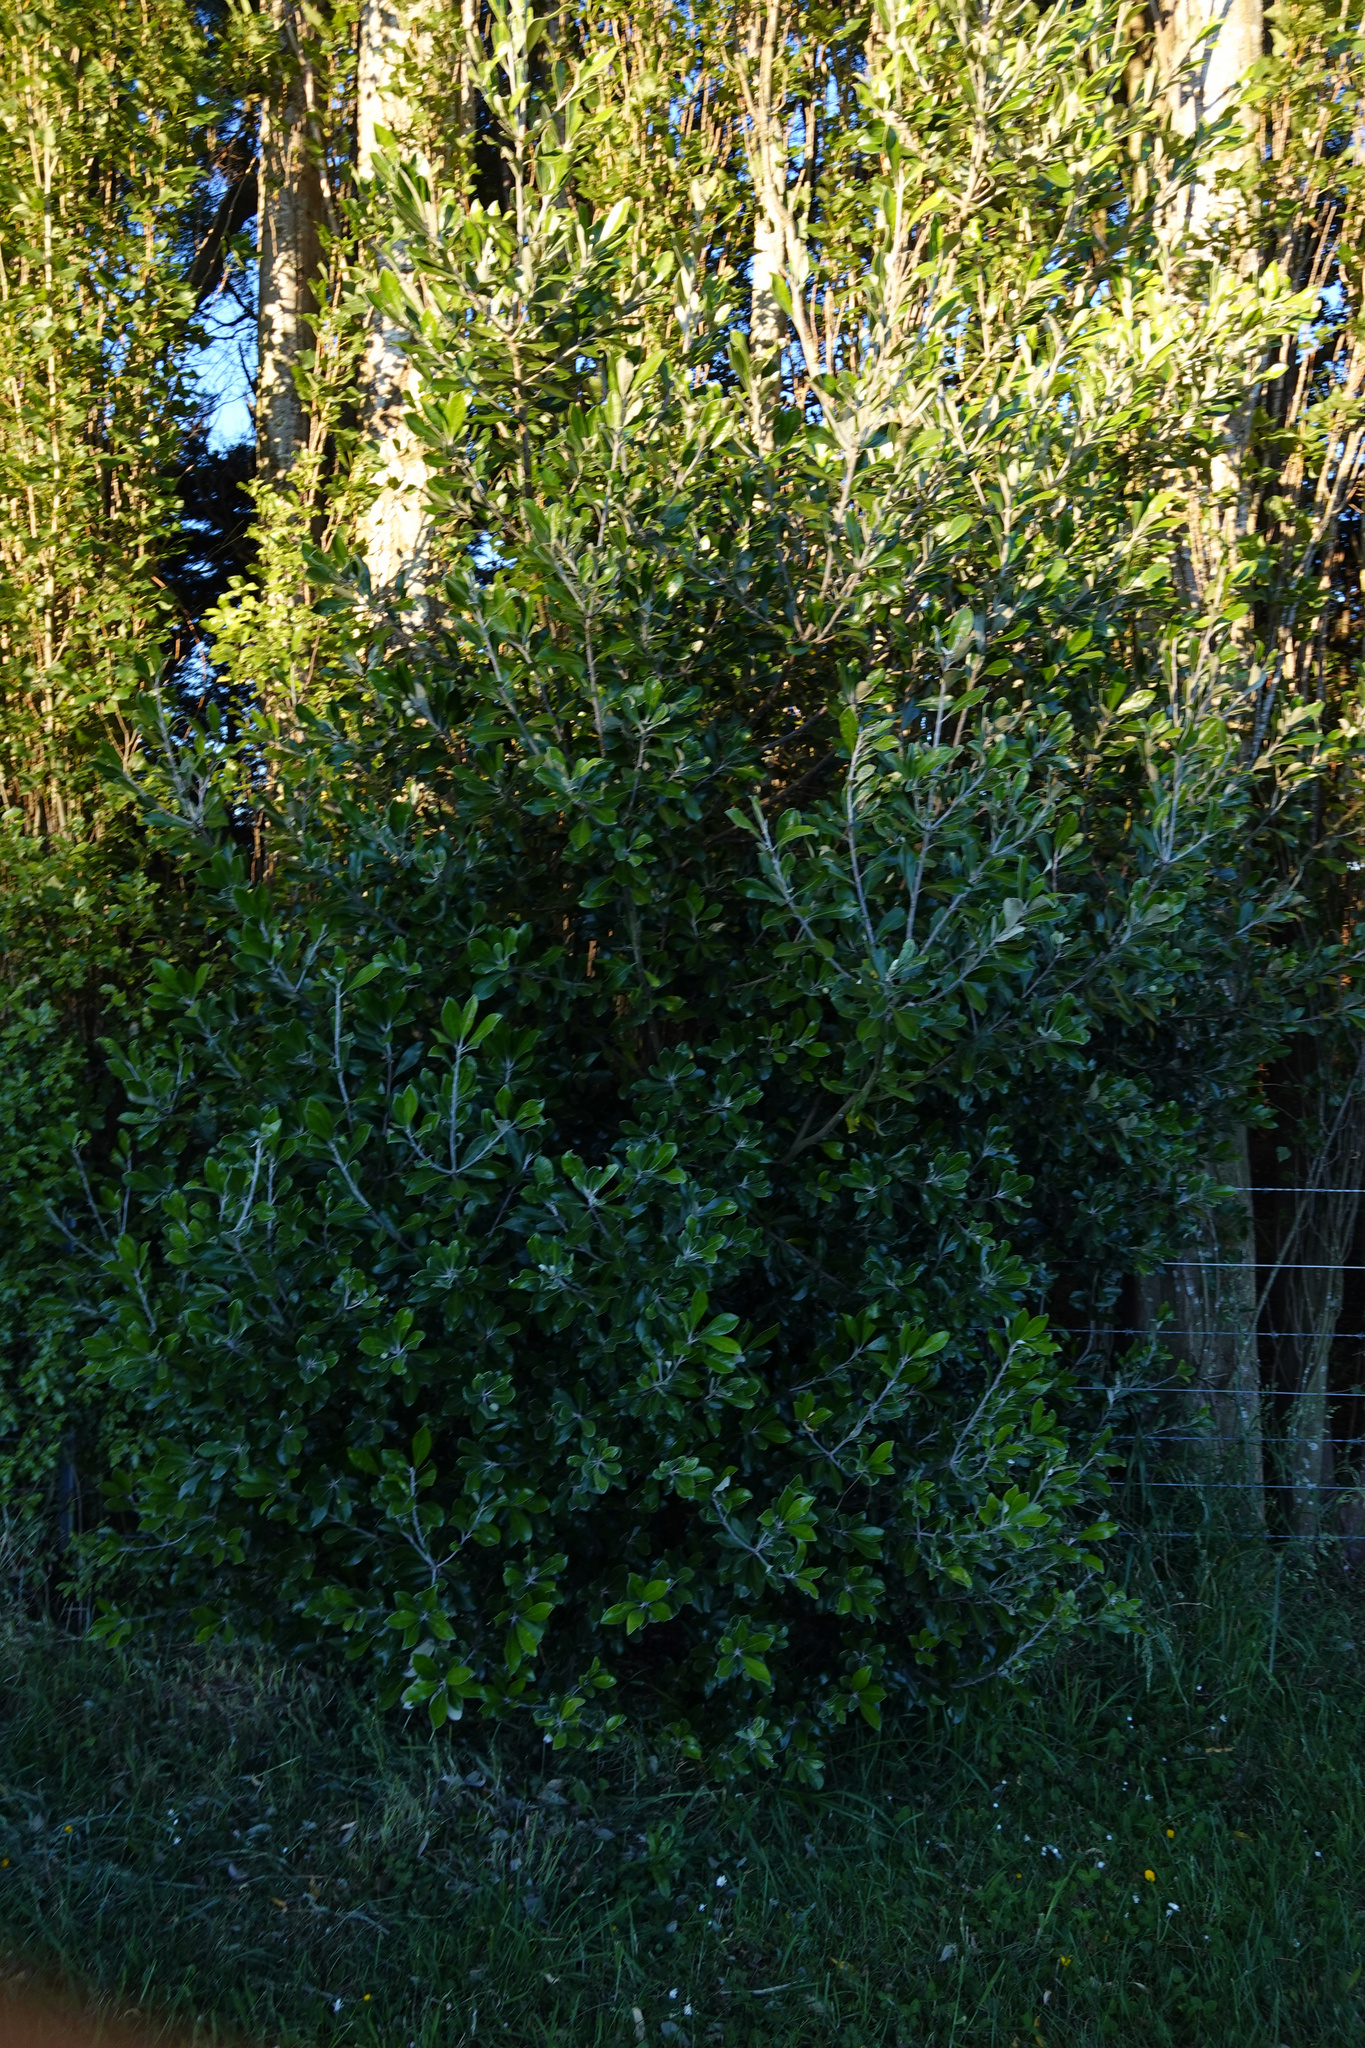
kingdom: Plantae
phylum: Tracheophyta
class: Magnoliopsida
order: Apiales
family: Pittosporaceae
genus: Pittosporum
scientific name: Pittosporum crassifolium
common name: Karo
